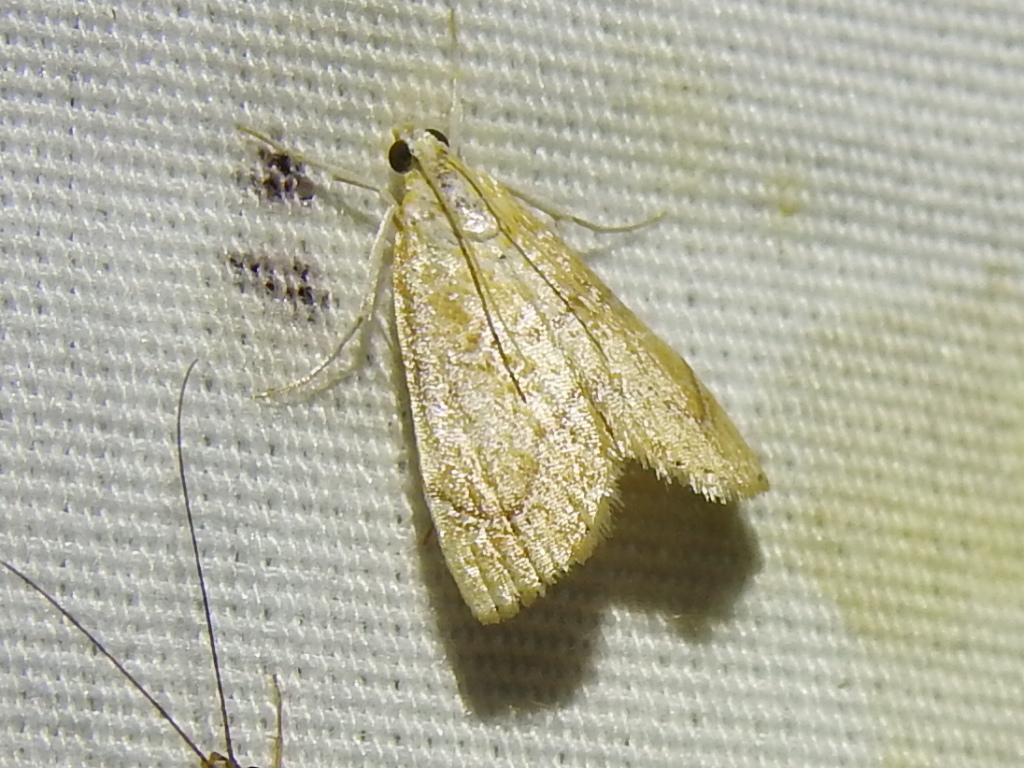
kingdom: Animalia
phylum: Arthropoda
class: Insecta
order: Lepidoptera
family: Crambidae
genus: Glaphyria
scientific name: Glaphyria sesquistrialis
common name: White-roped glaphyria
